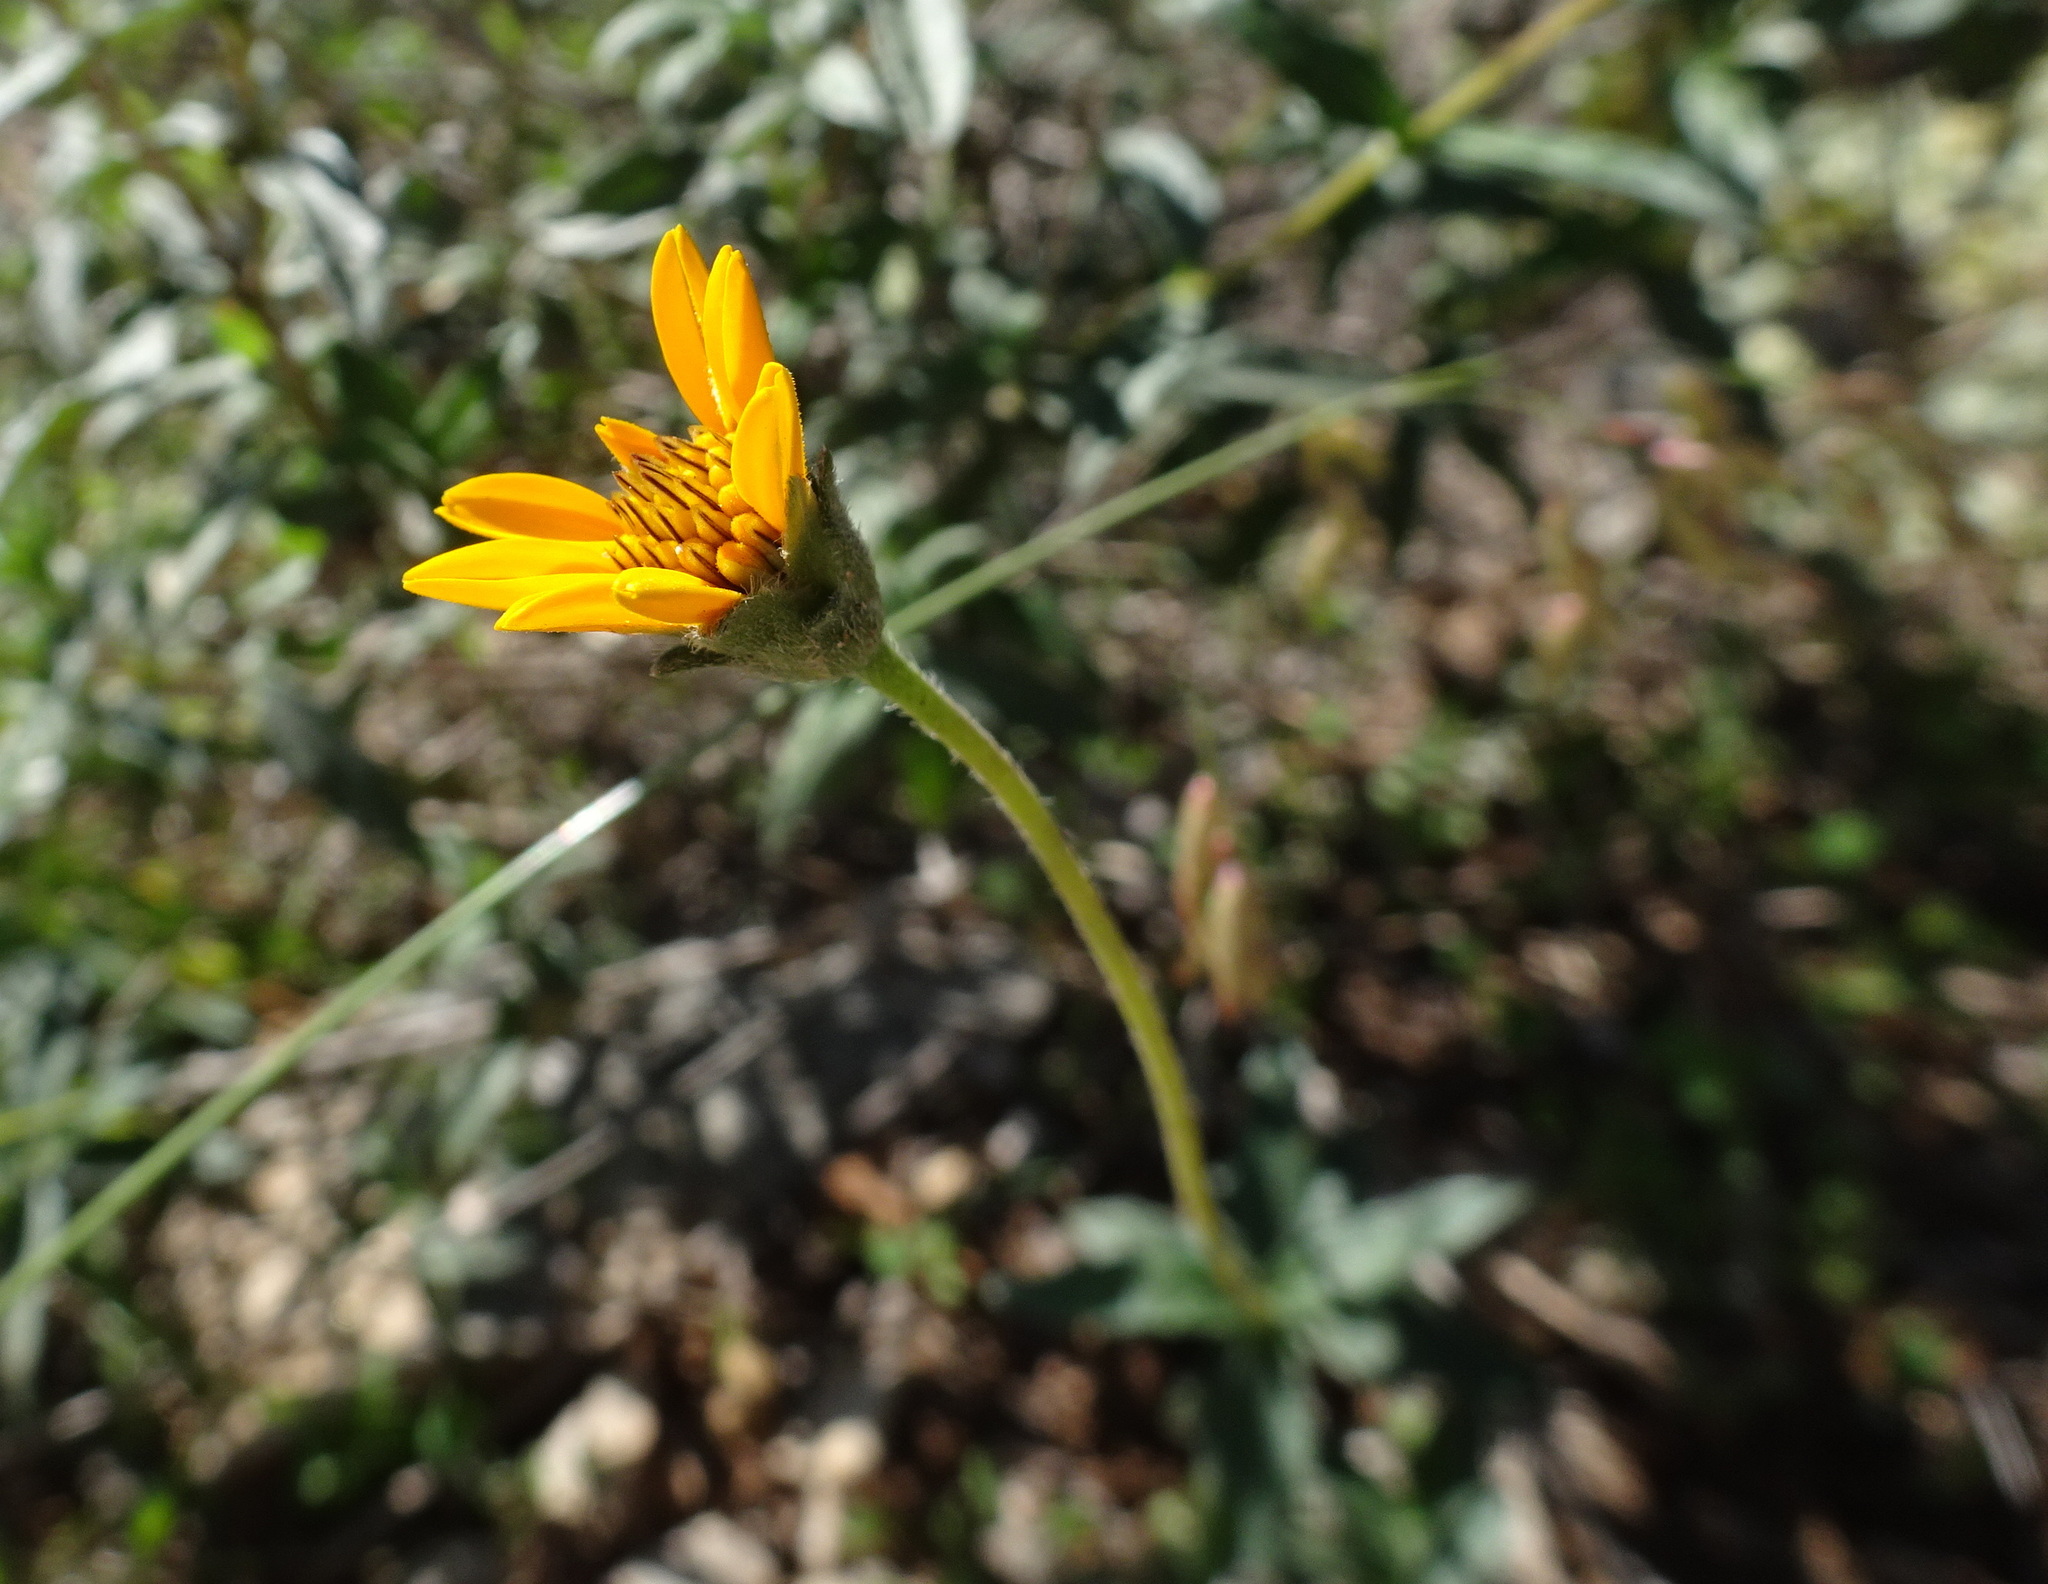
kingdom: Plantae
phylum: Tracheophyta
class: Magnoliopsida
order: Asterales
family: Asteraceae
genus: Wedelia
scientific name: Wedelia acapulcensis
